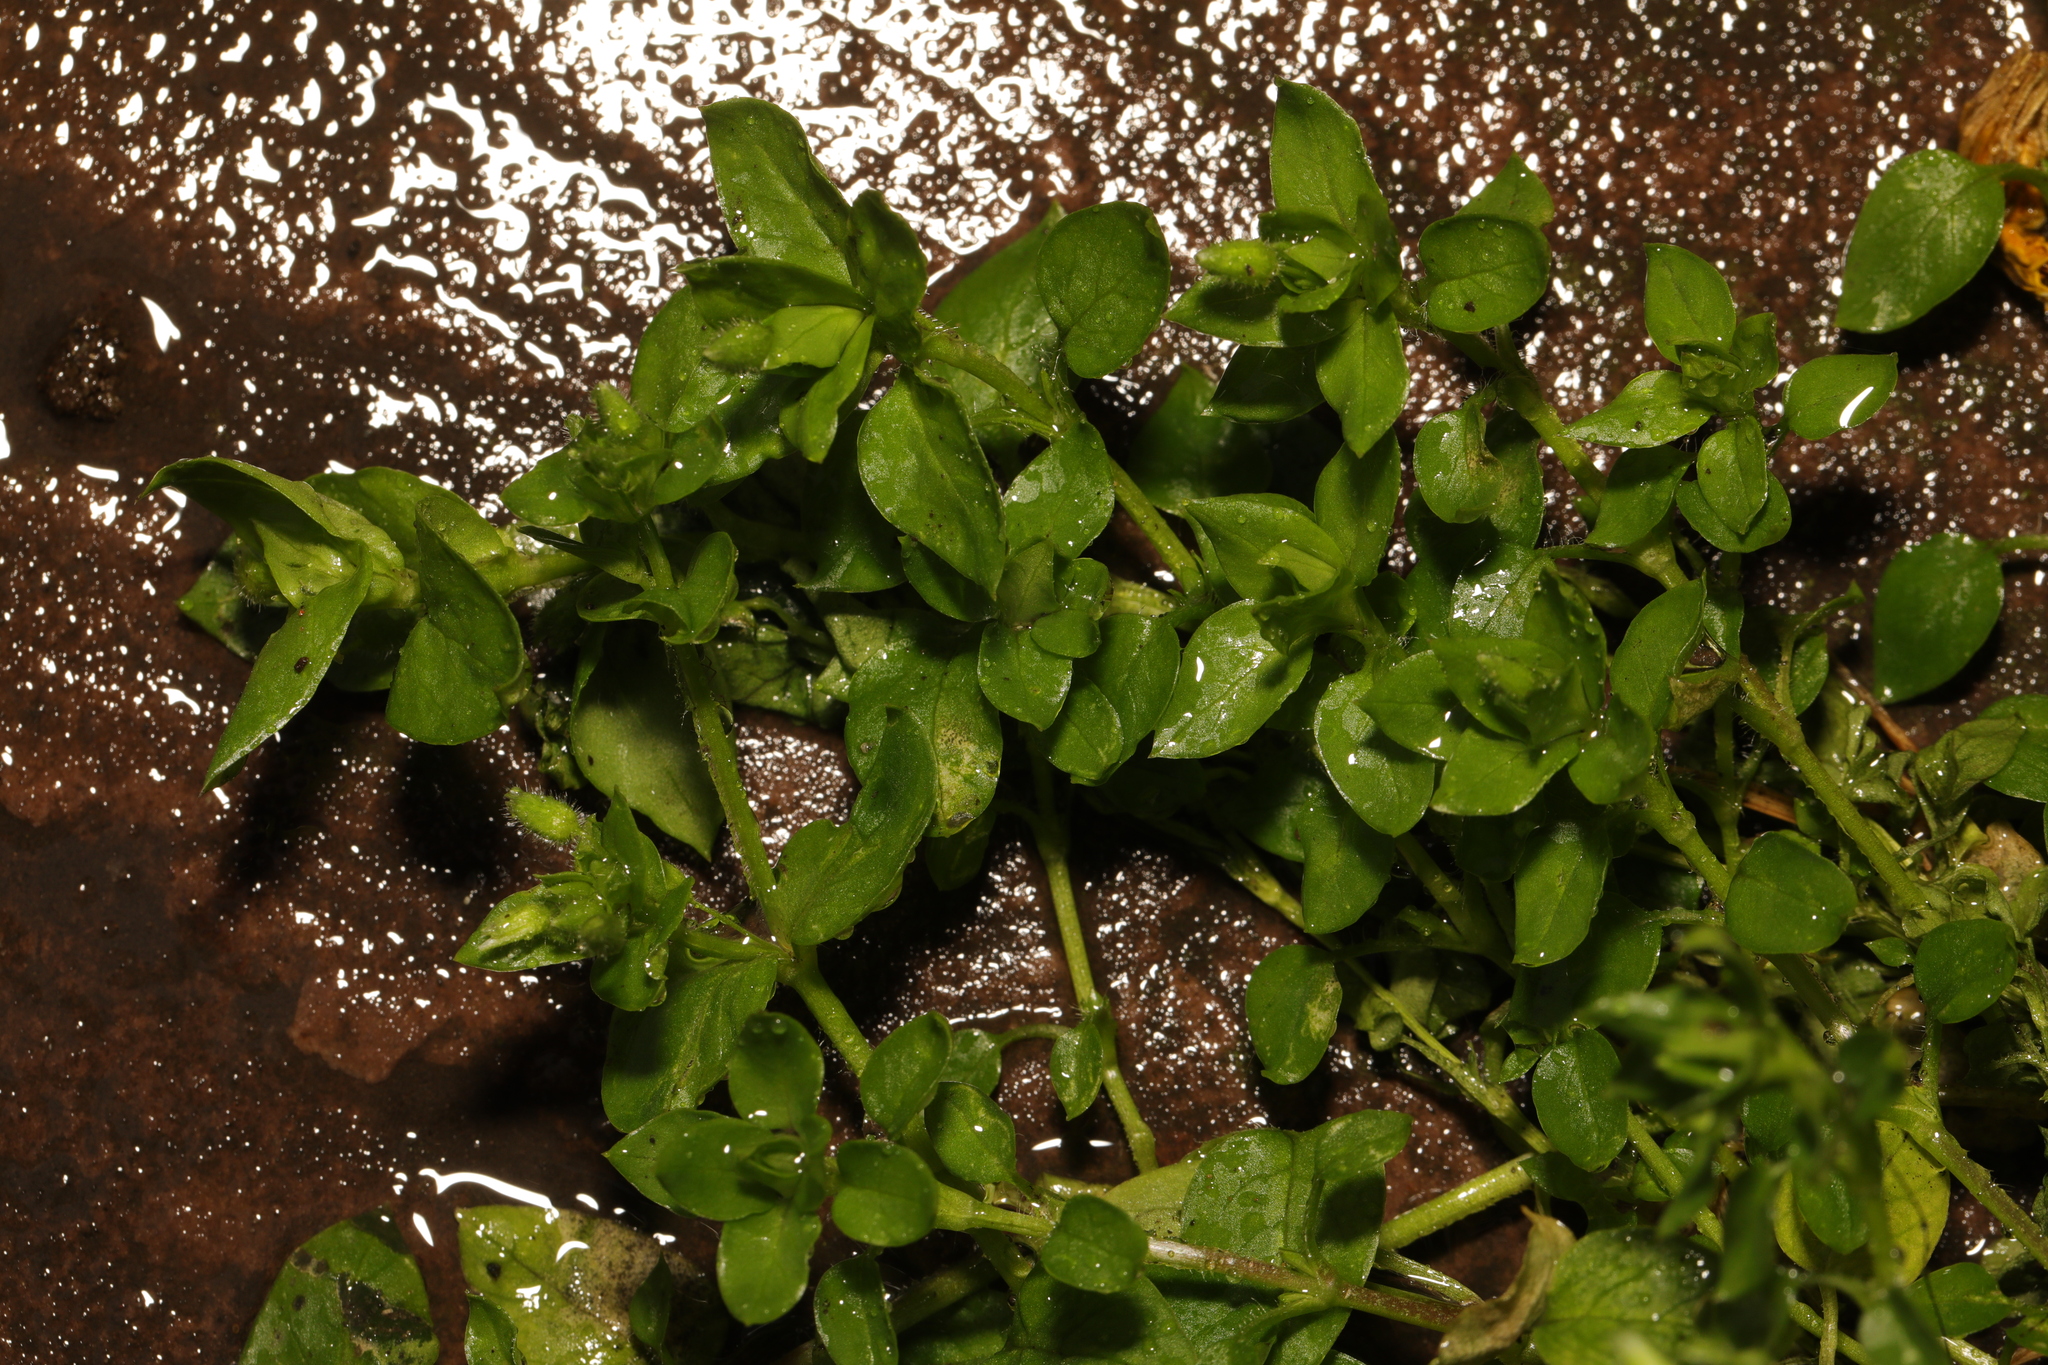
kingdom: Plantae
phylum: Tracheophyta
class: Magnoliopsida
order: Caryophyllales
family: Caryophyllaceae
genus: Stellaria
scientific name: Stellaria media
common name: Common chickweed
